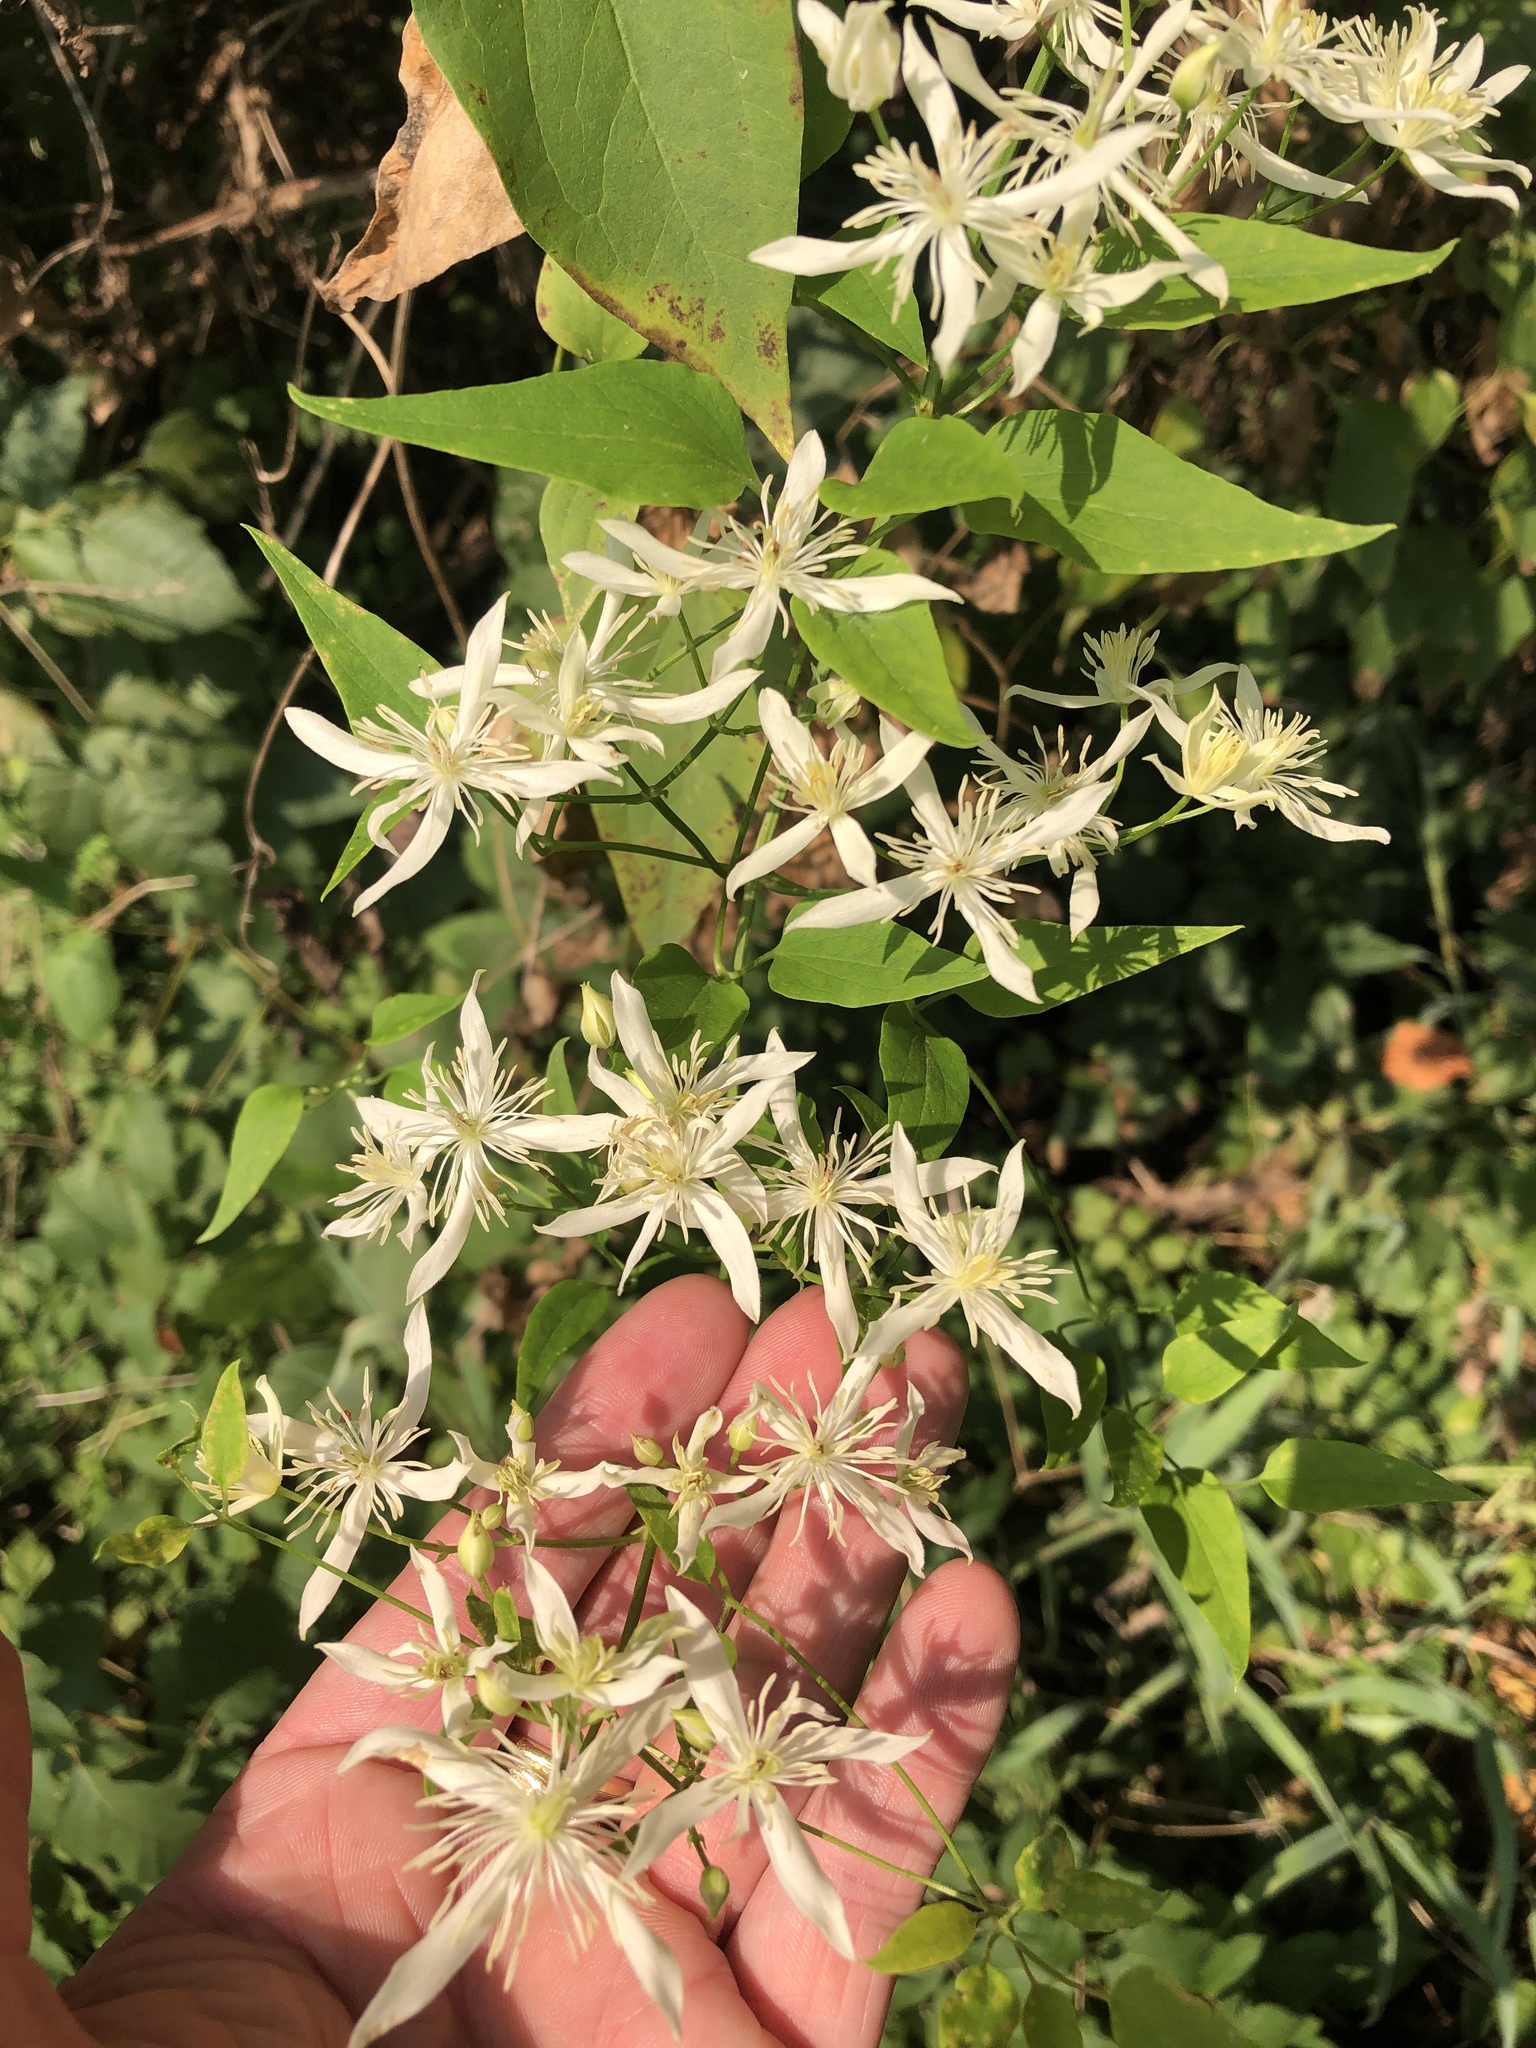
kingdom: Plantae
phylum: Tracheophyta
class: Magnoliopsida
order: Ranunculales
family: Ranunculaceae
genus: Clematis
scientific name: Clematis terniflora
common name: Sweet autumn clematis
